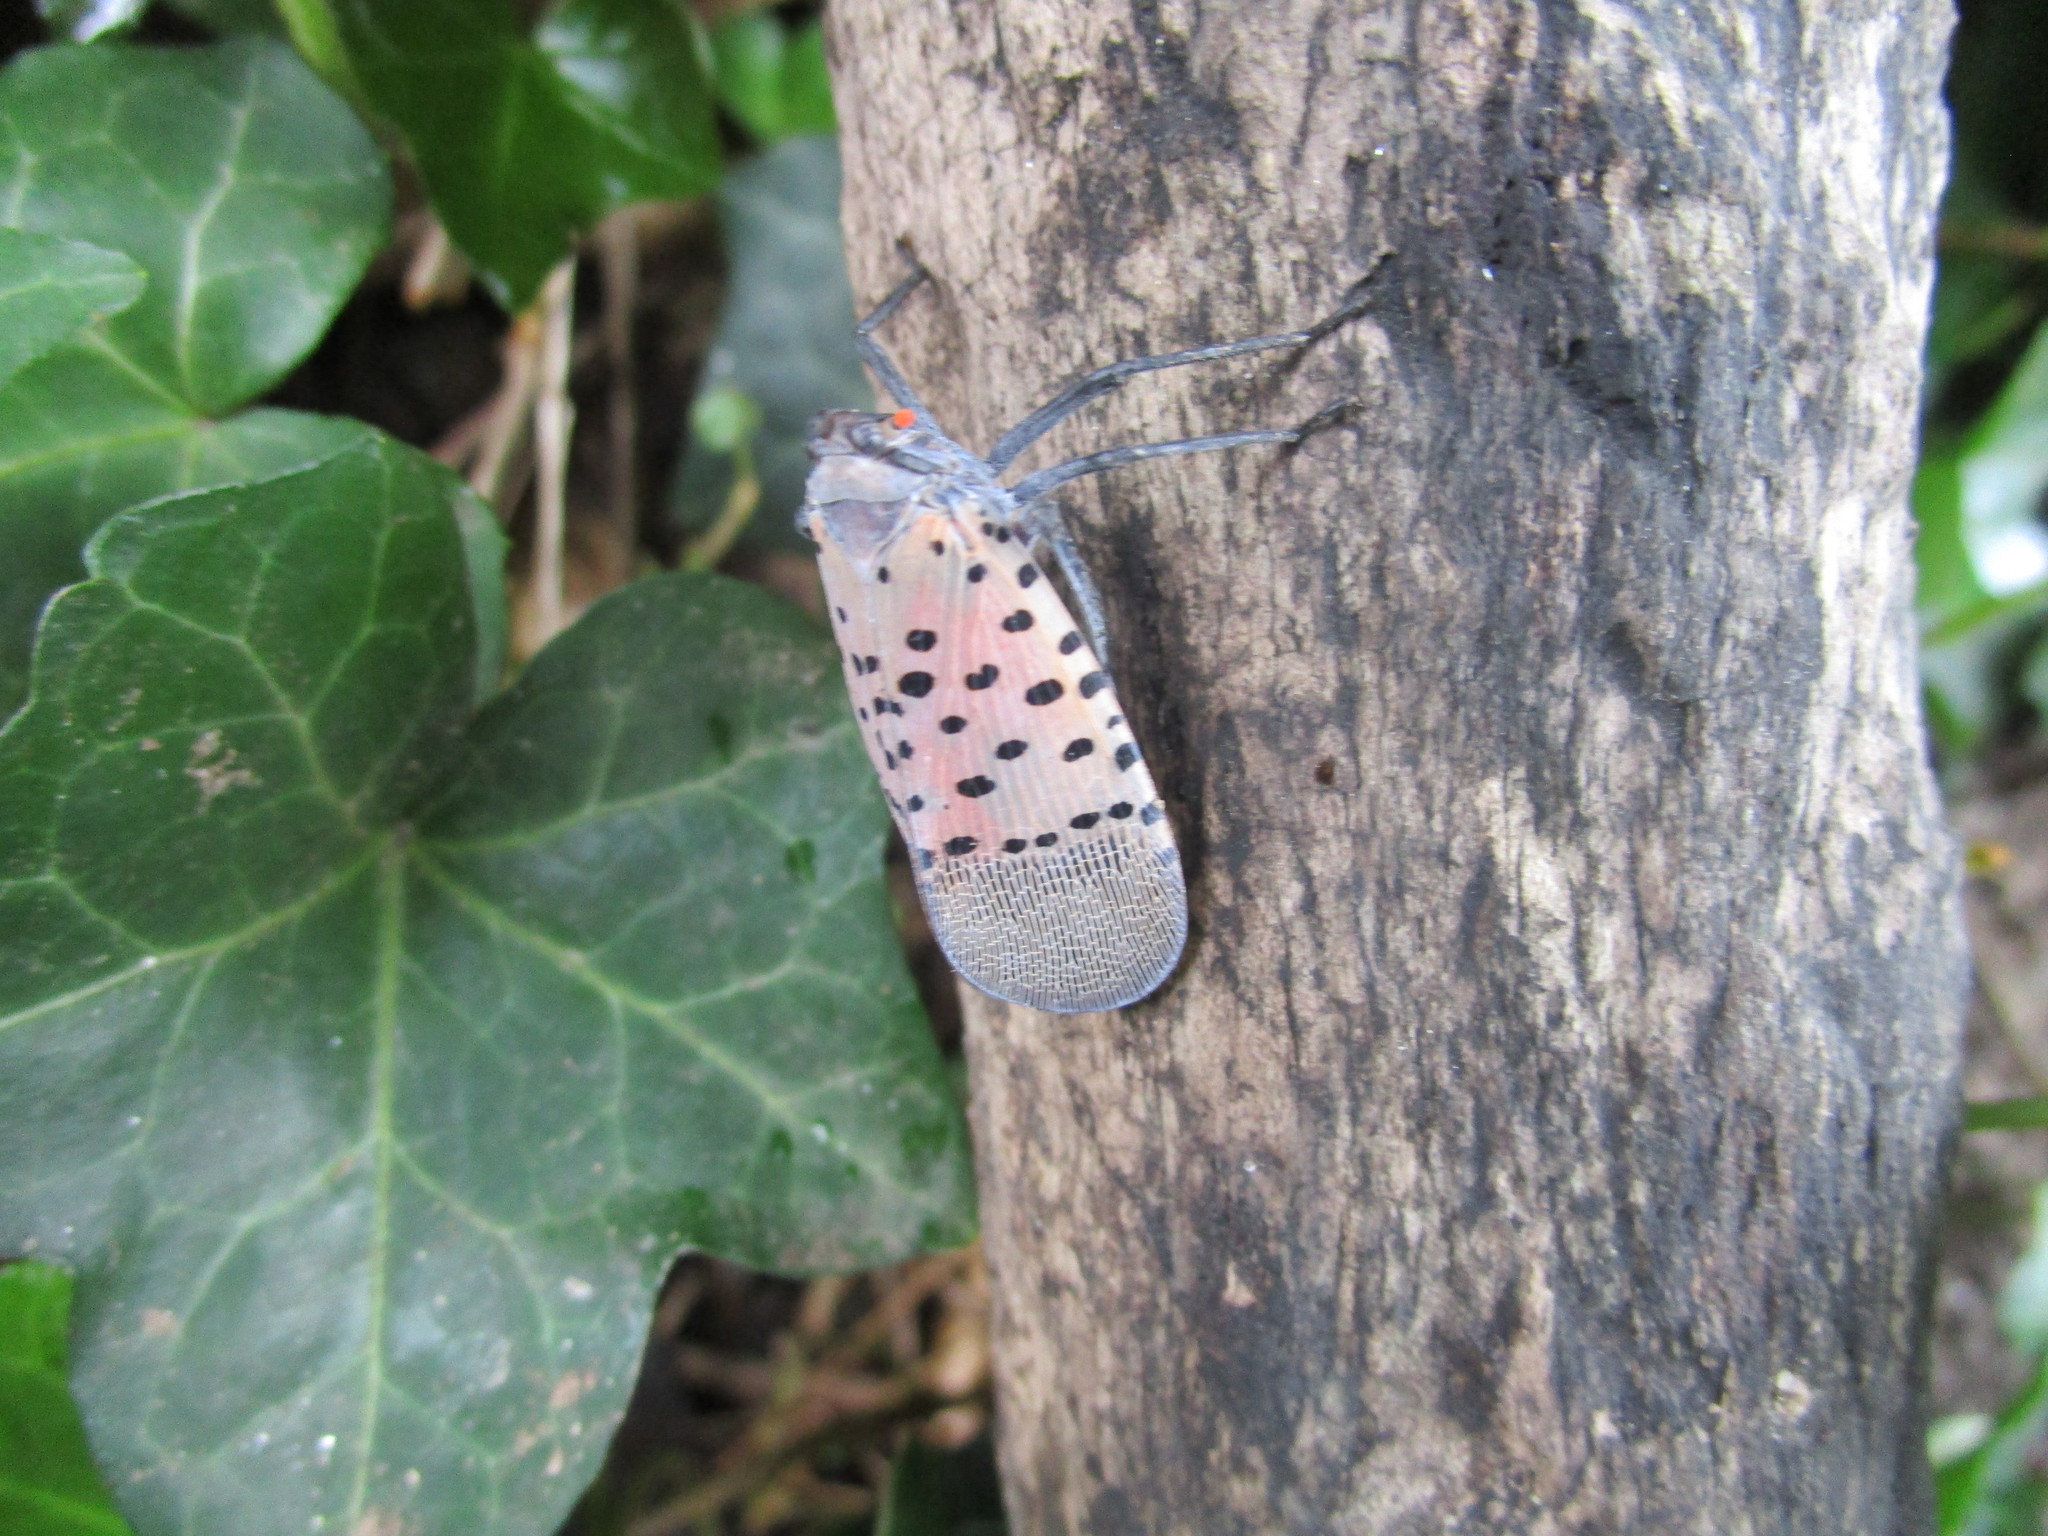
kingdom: Animalia
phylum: Arthropoda
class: Insecta
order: Hemiptera
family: Fulgoridae
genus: Lycorma
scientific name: Lycorma delicatula
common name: Spotted lanternfly
